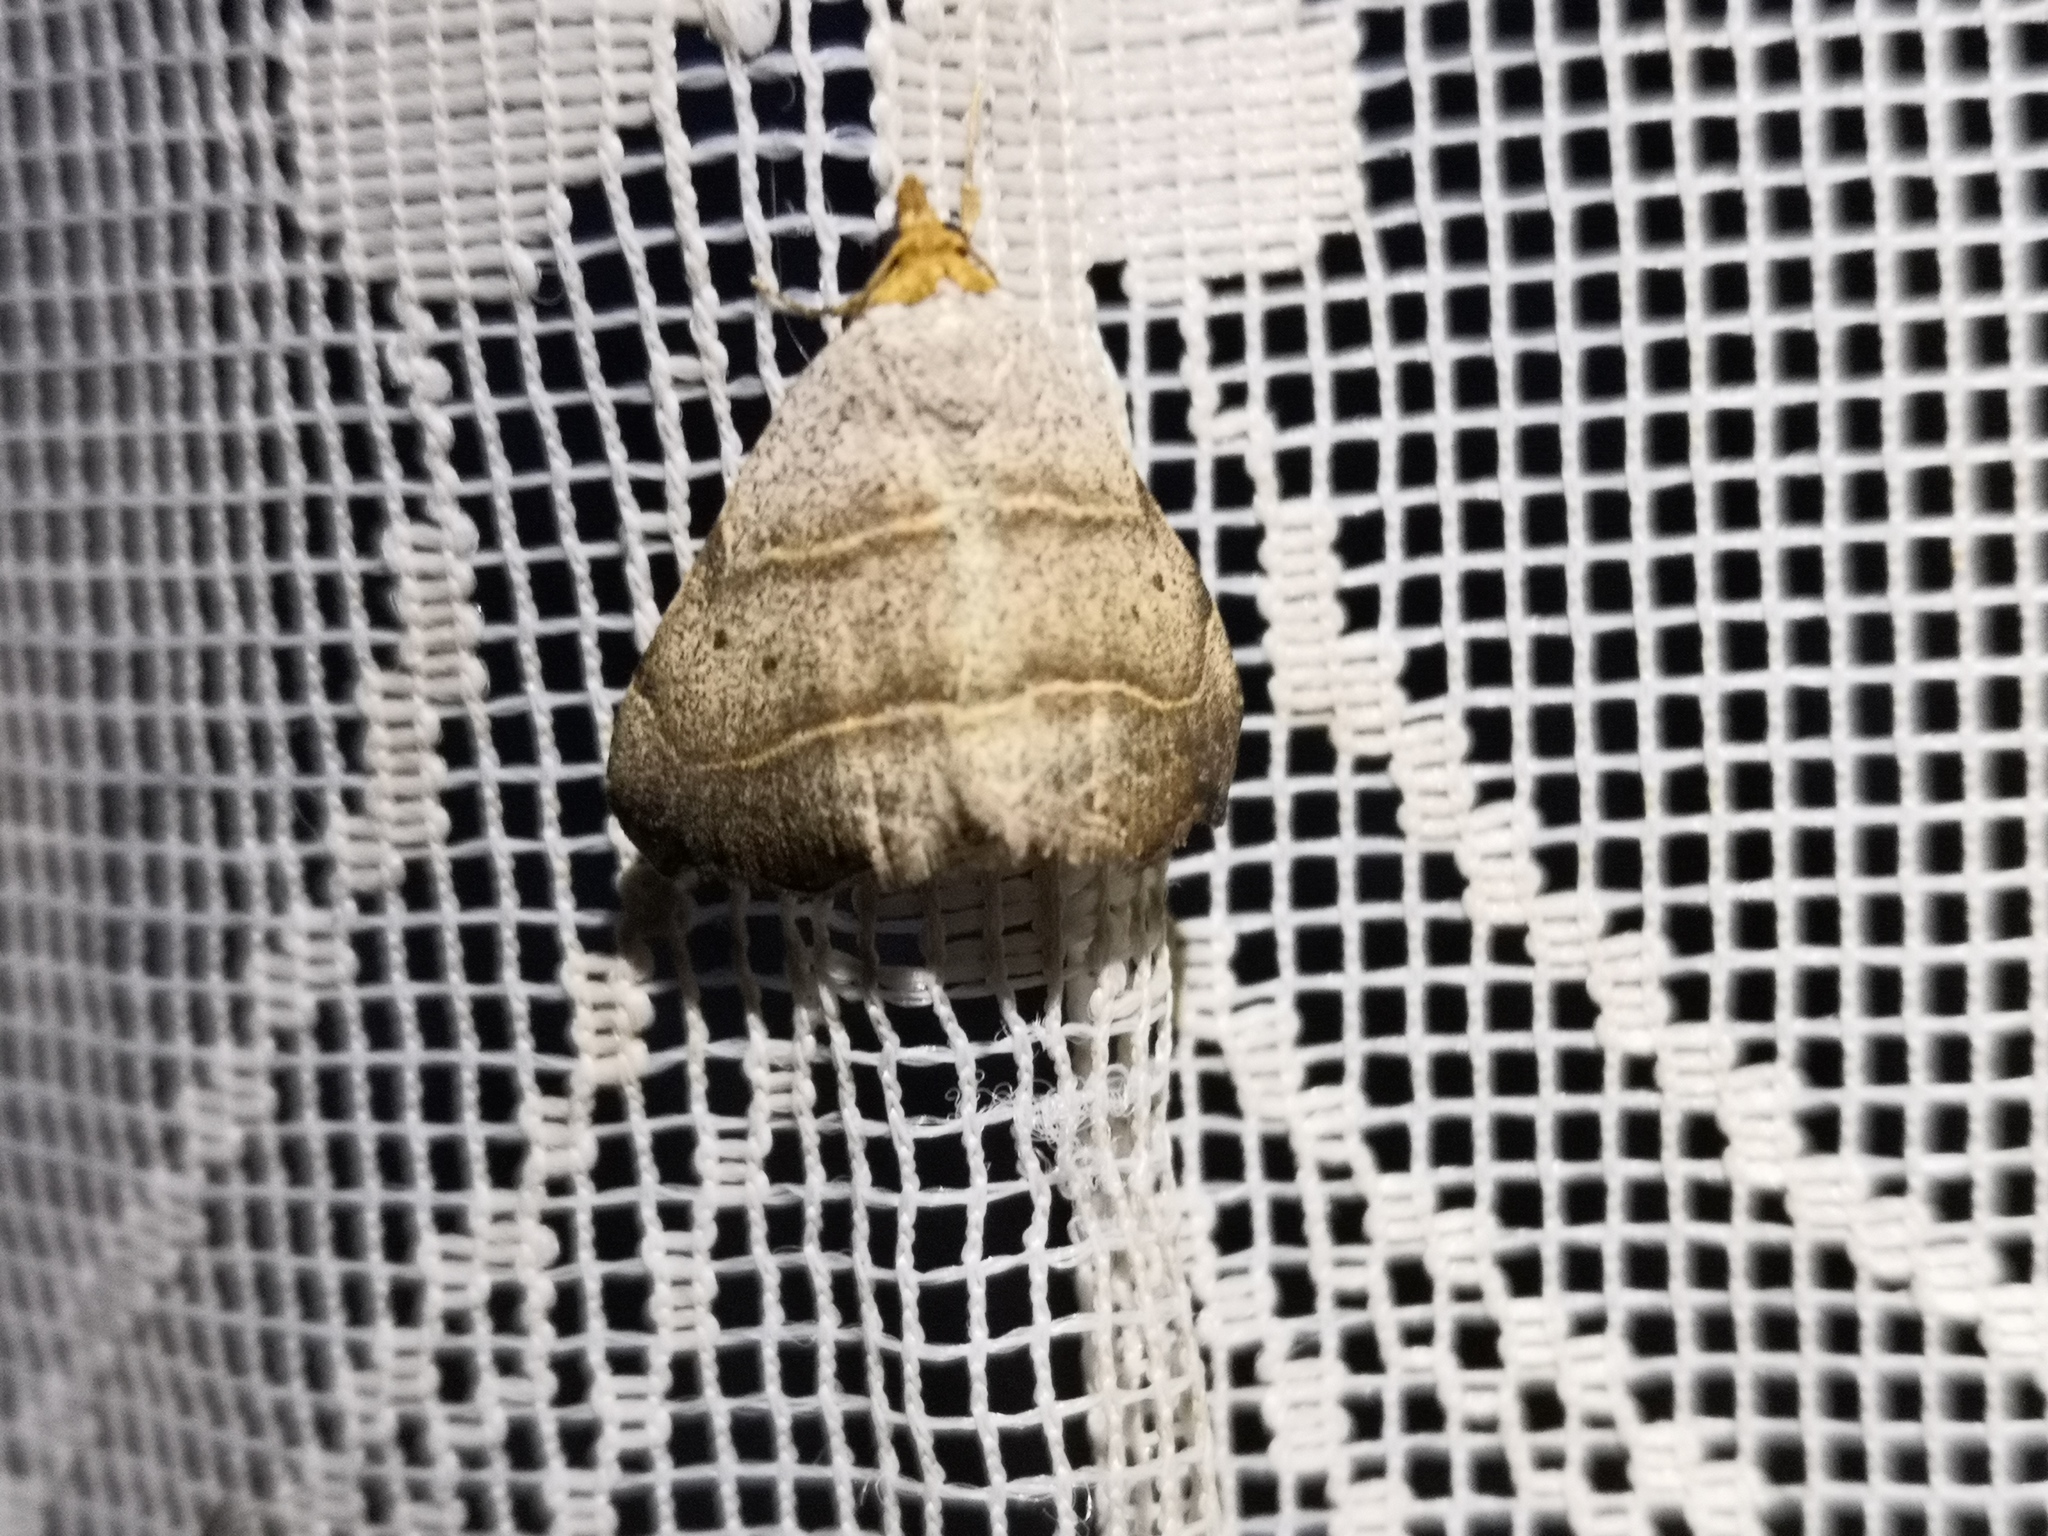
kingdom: Animalia
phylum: Arthropoda
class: Insecta
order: Lepidoptera
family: Erebidae
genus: Laspeyria
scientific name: Laspeyria flexula
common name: Beautiful hook-tip
